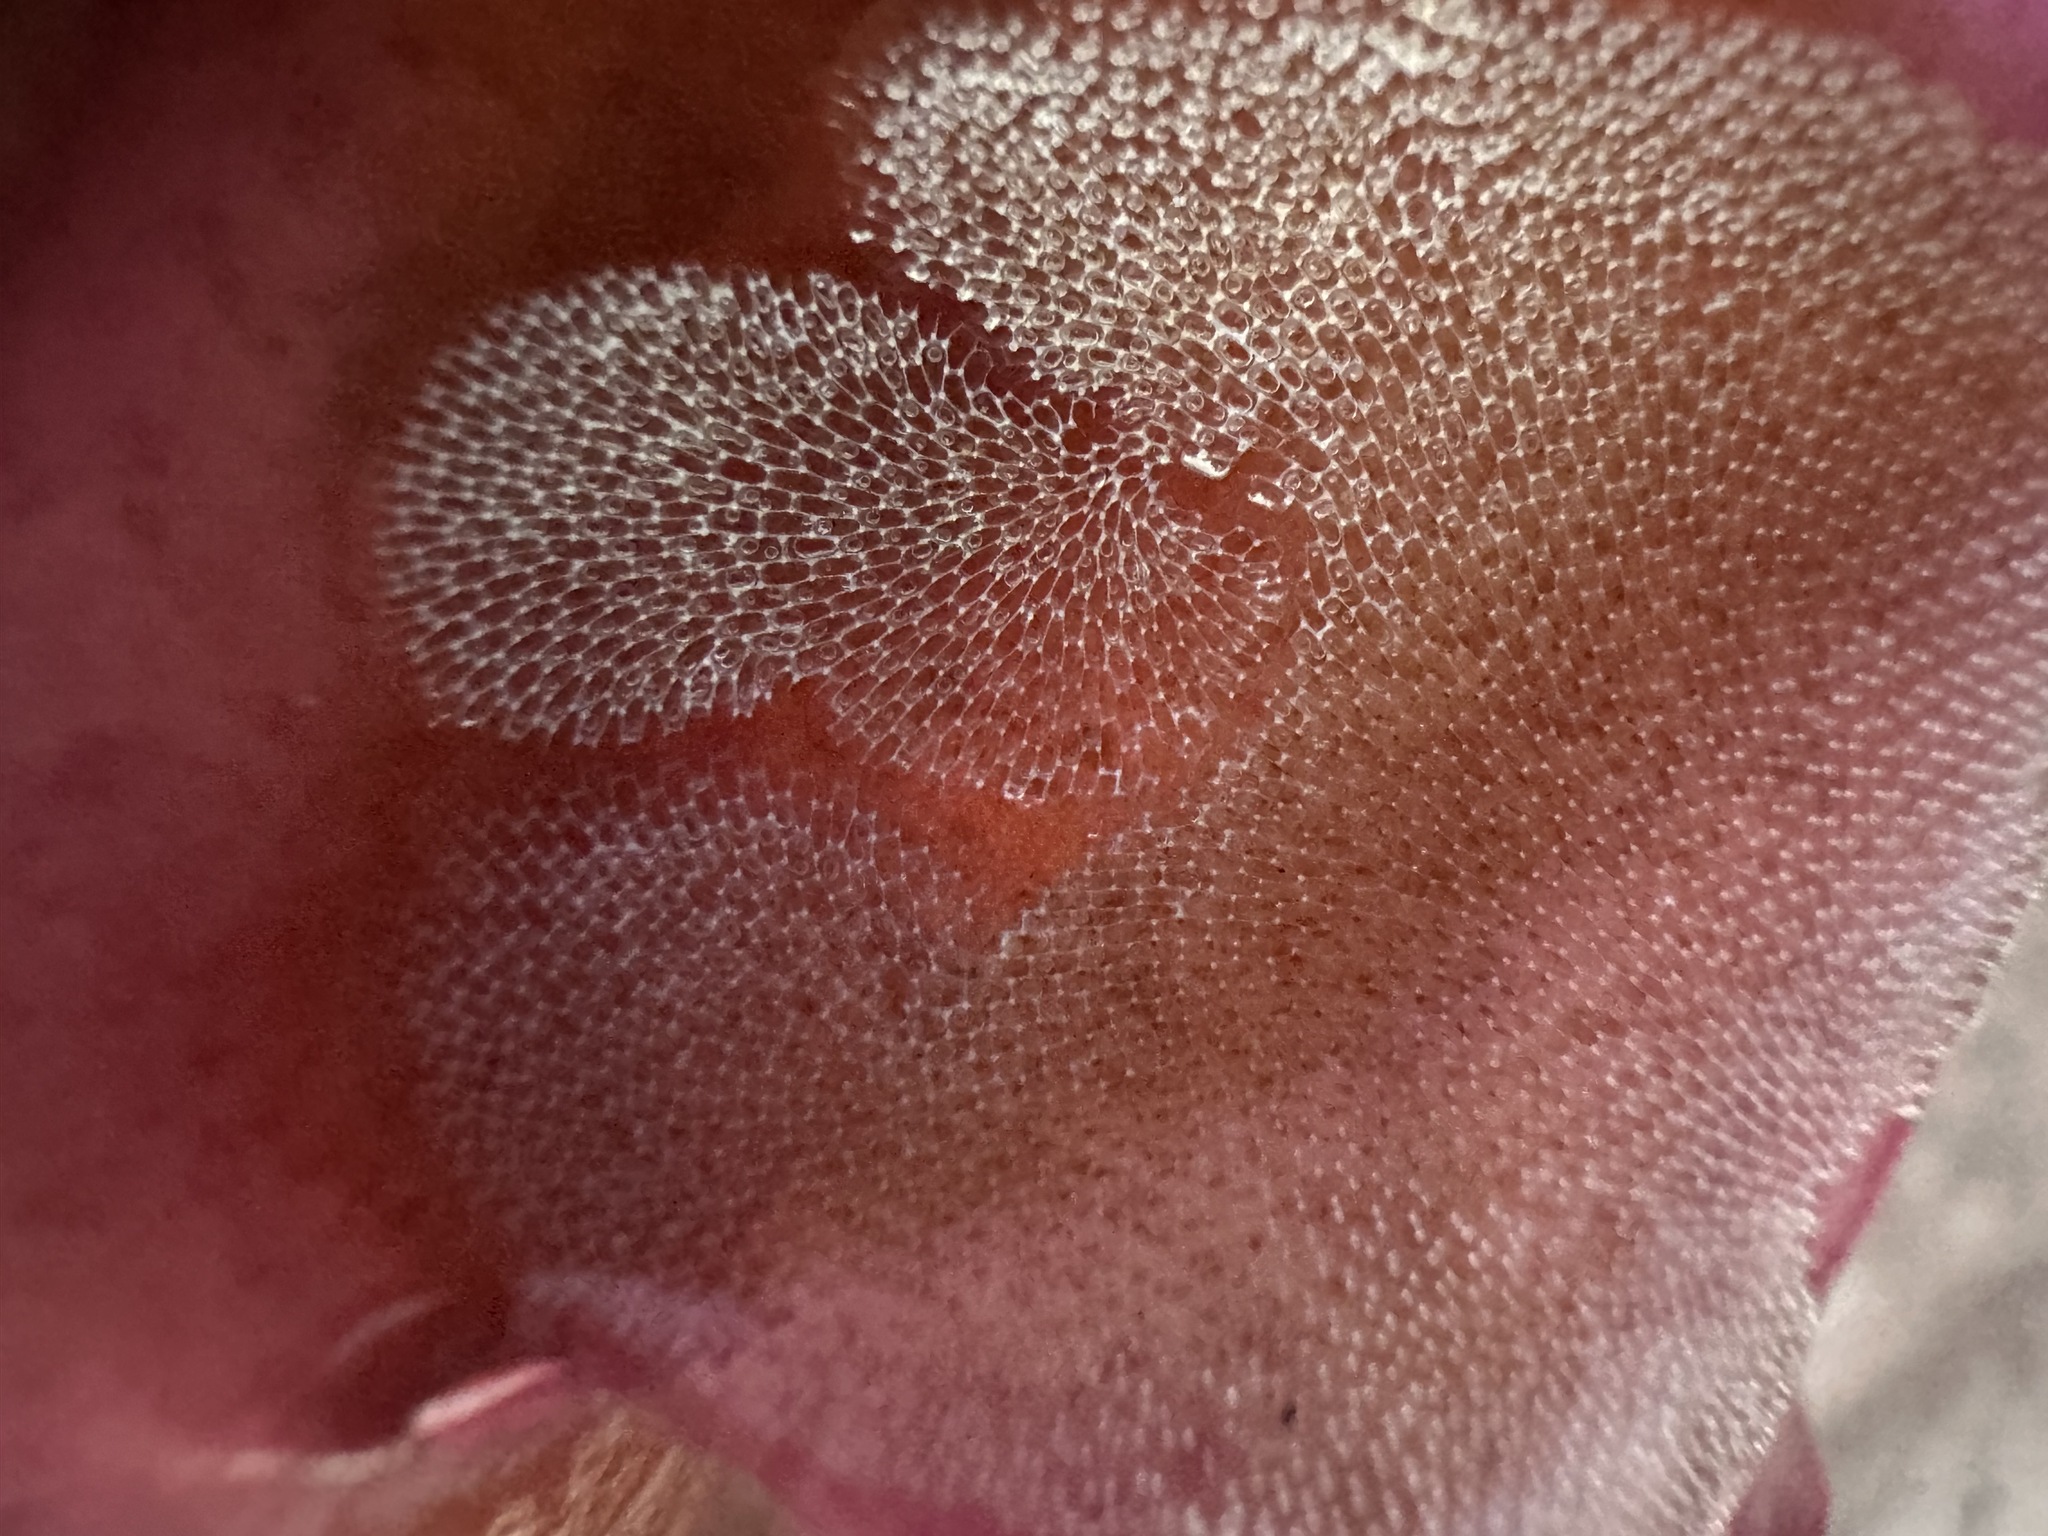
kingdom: Animalia
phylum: Bryozoa
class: Gymnolaemata
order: Cheilostomatida
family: Membraniporidae
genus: Membranipora
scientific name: Membranipora membranacea
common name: Sea mat
